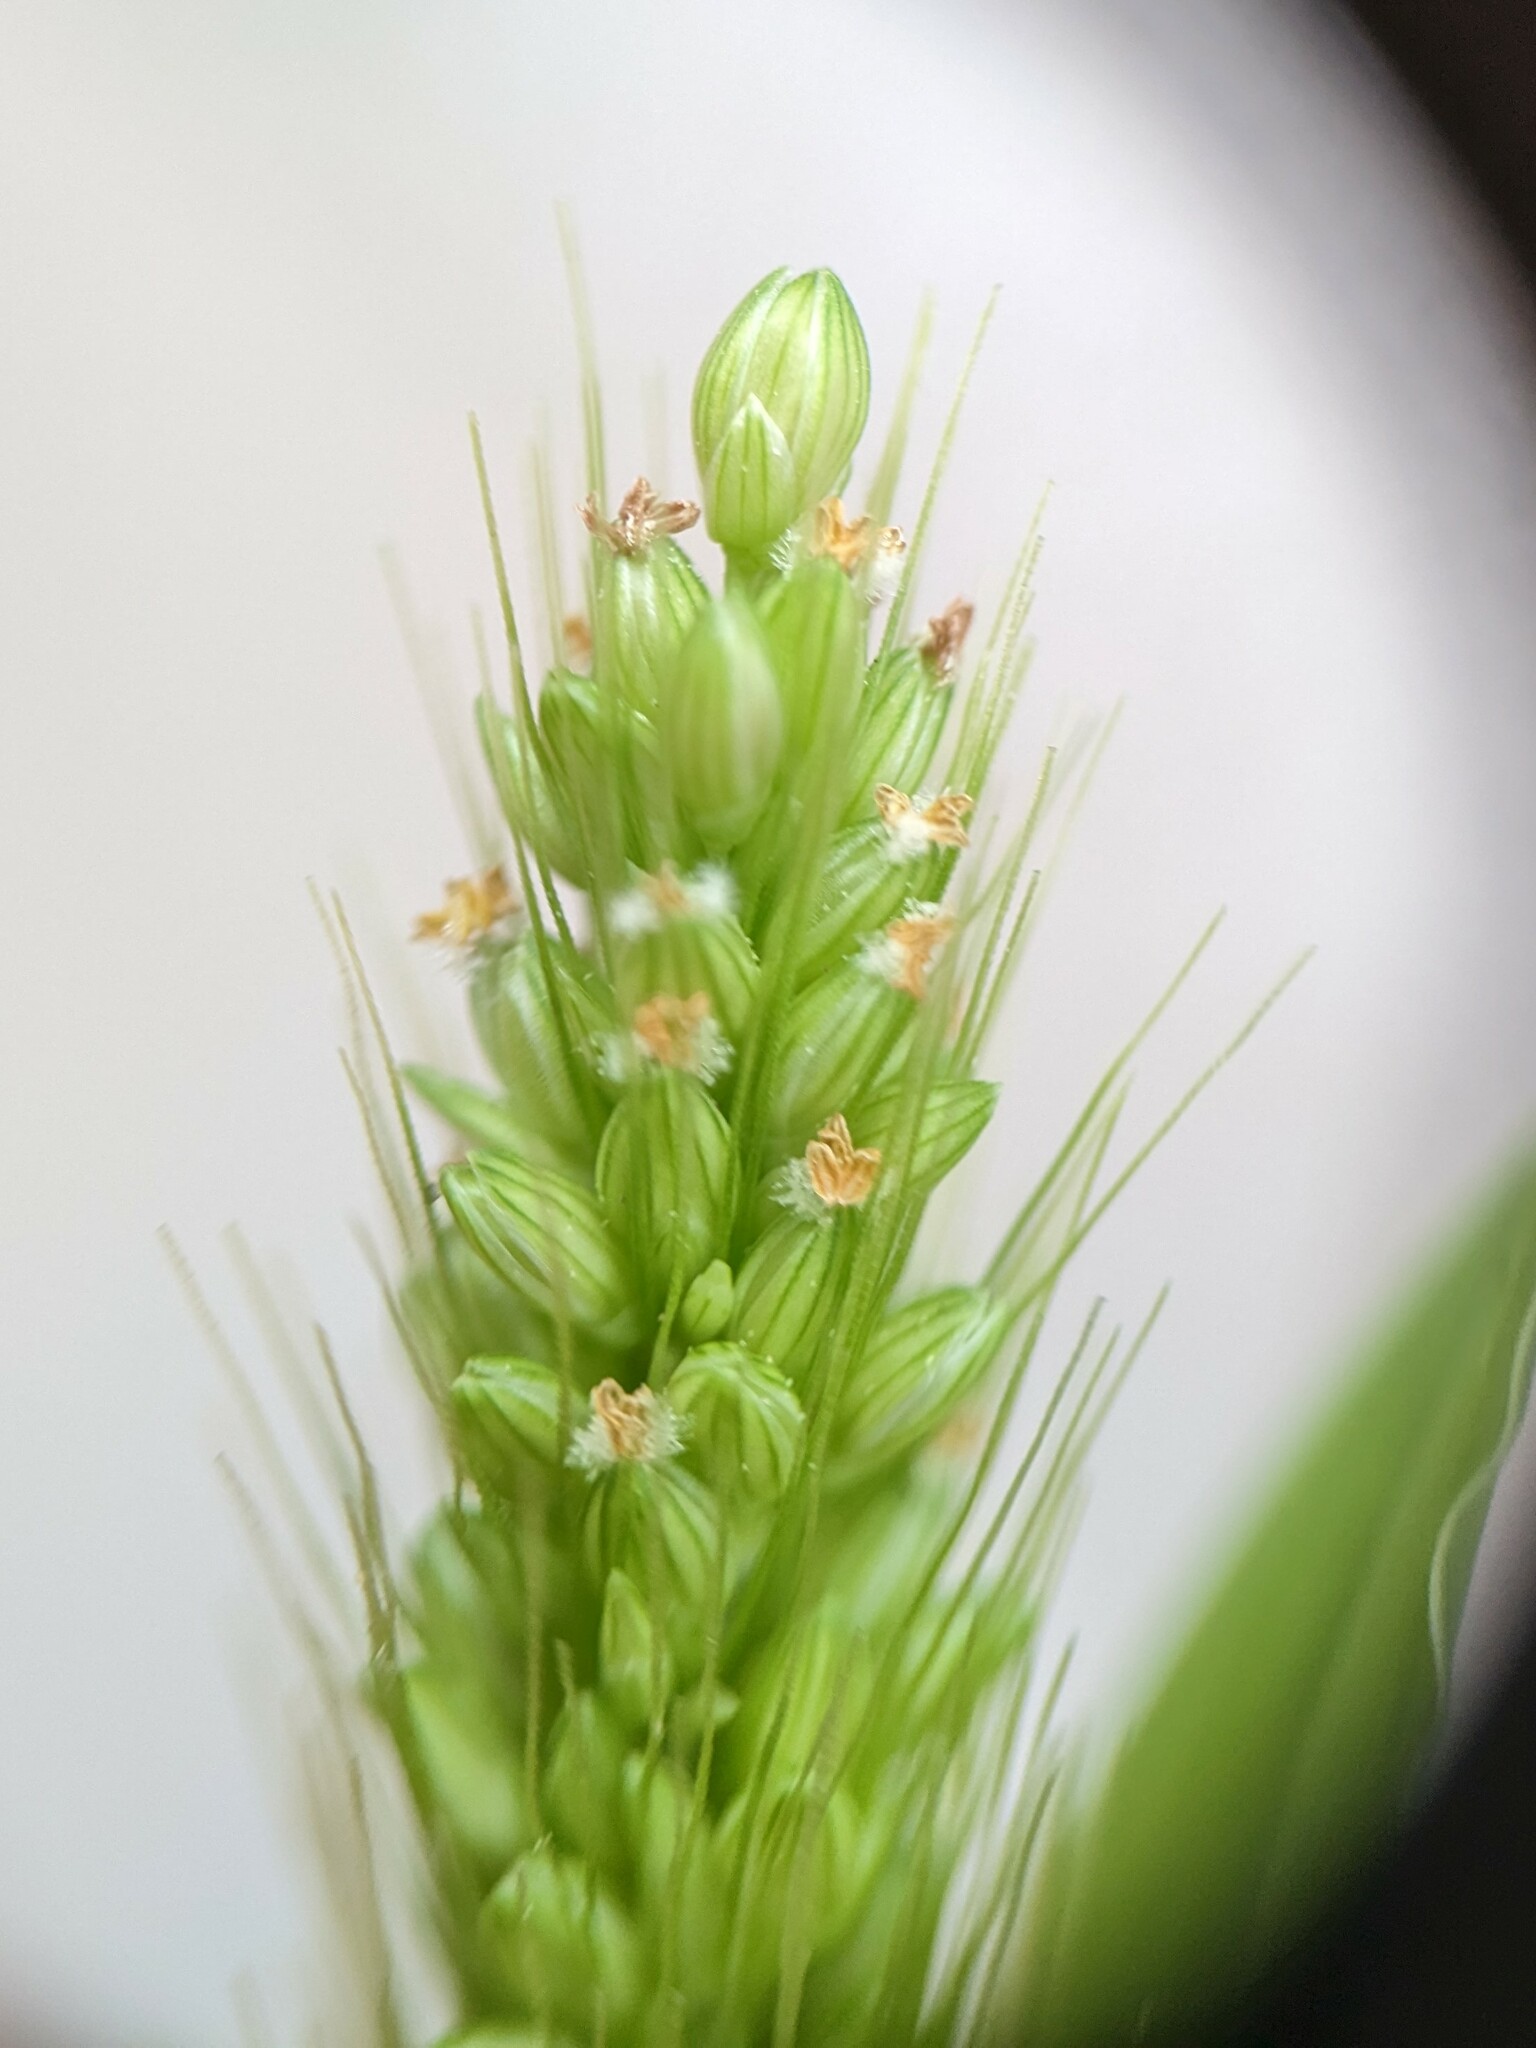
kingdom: Plantae
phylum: Tracheophyta
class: Liliopsida
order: Poales
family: Poaceae
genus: Setaria
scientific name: Setaria viridis
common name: Green bristlegrass
